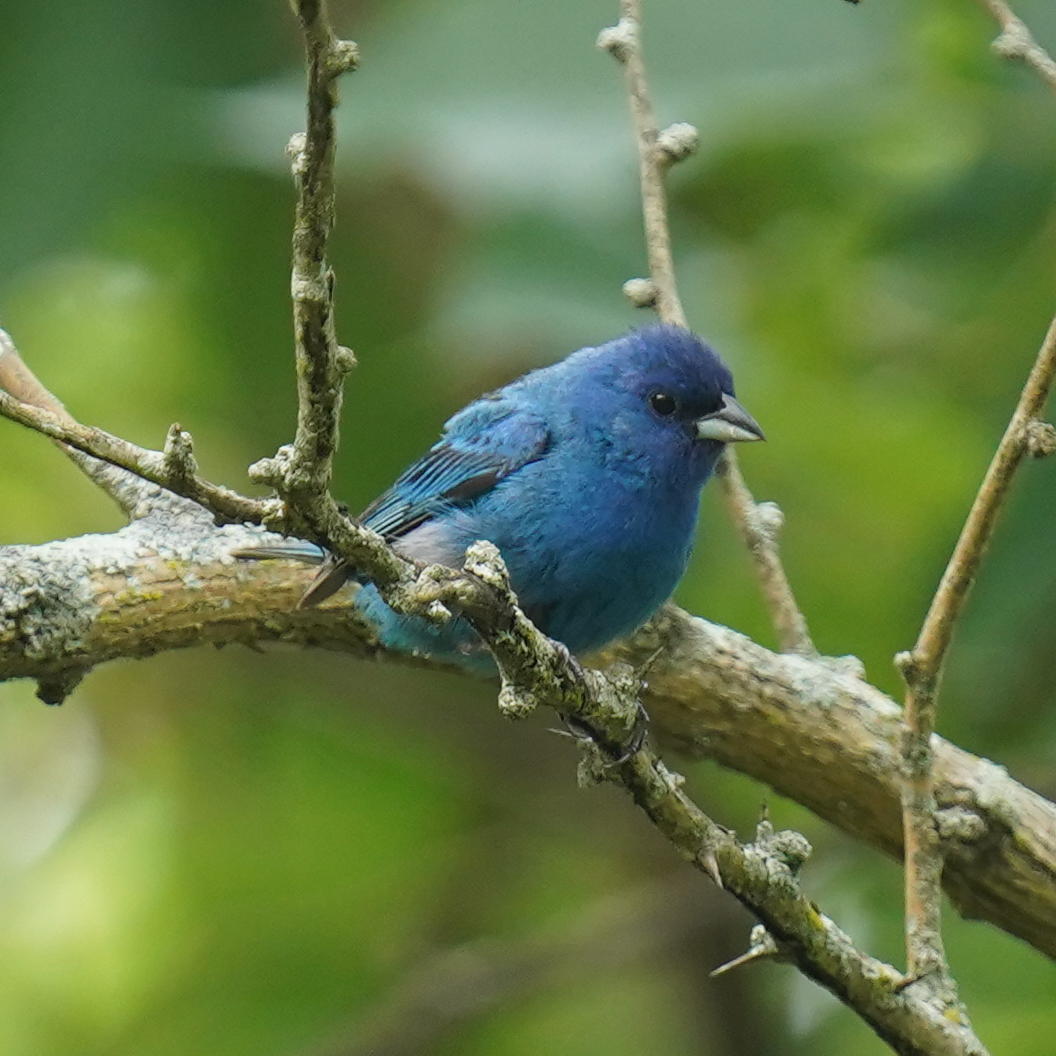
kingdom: Animalia
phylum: Chordata
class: Aves
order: Passeriformes
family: Cardinalidae
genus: Passerina
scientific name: Passerina cyanea
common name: Indigo bunting
